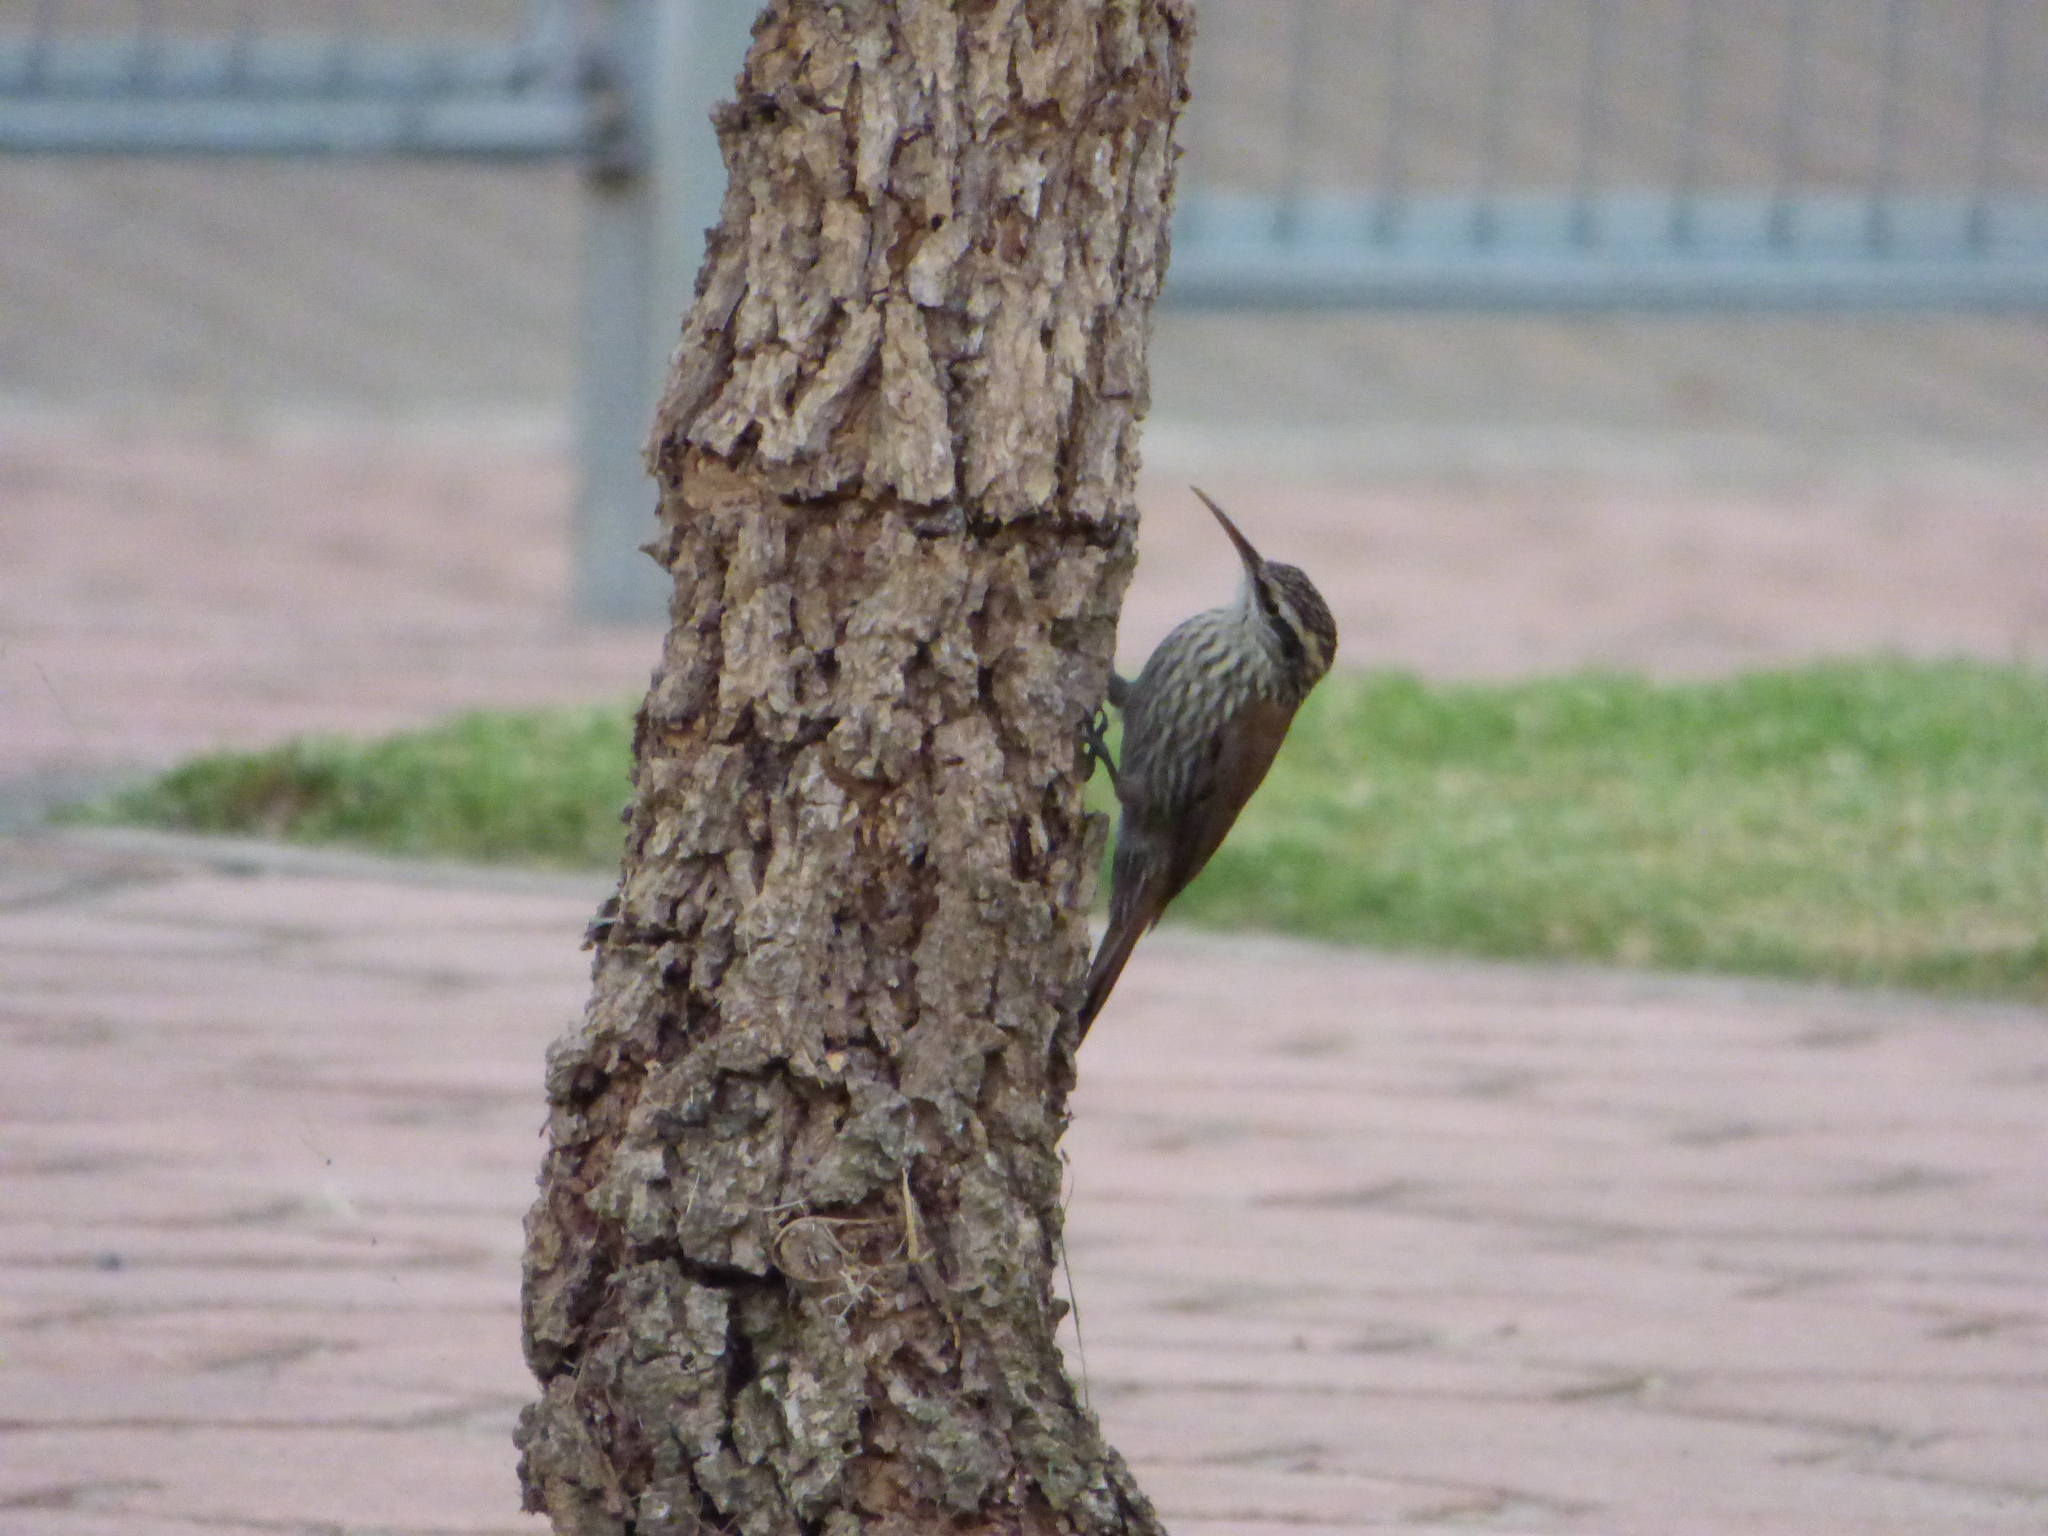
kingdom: Animalia
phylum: Chordata
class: Aves
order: Passeriformes
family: Furnariidae
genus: Lepidocolaptes
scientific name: Lepidocolaptes angustirostris
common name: Narrow-billed woodcreeper
